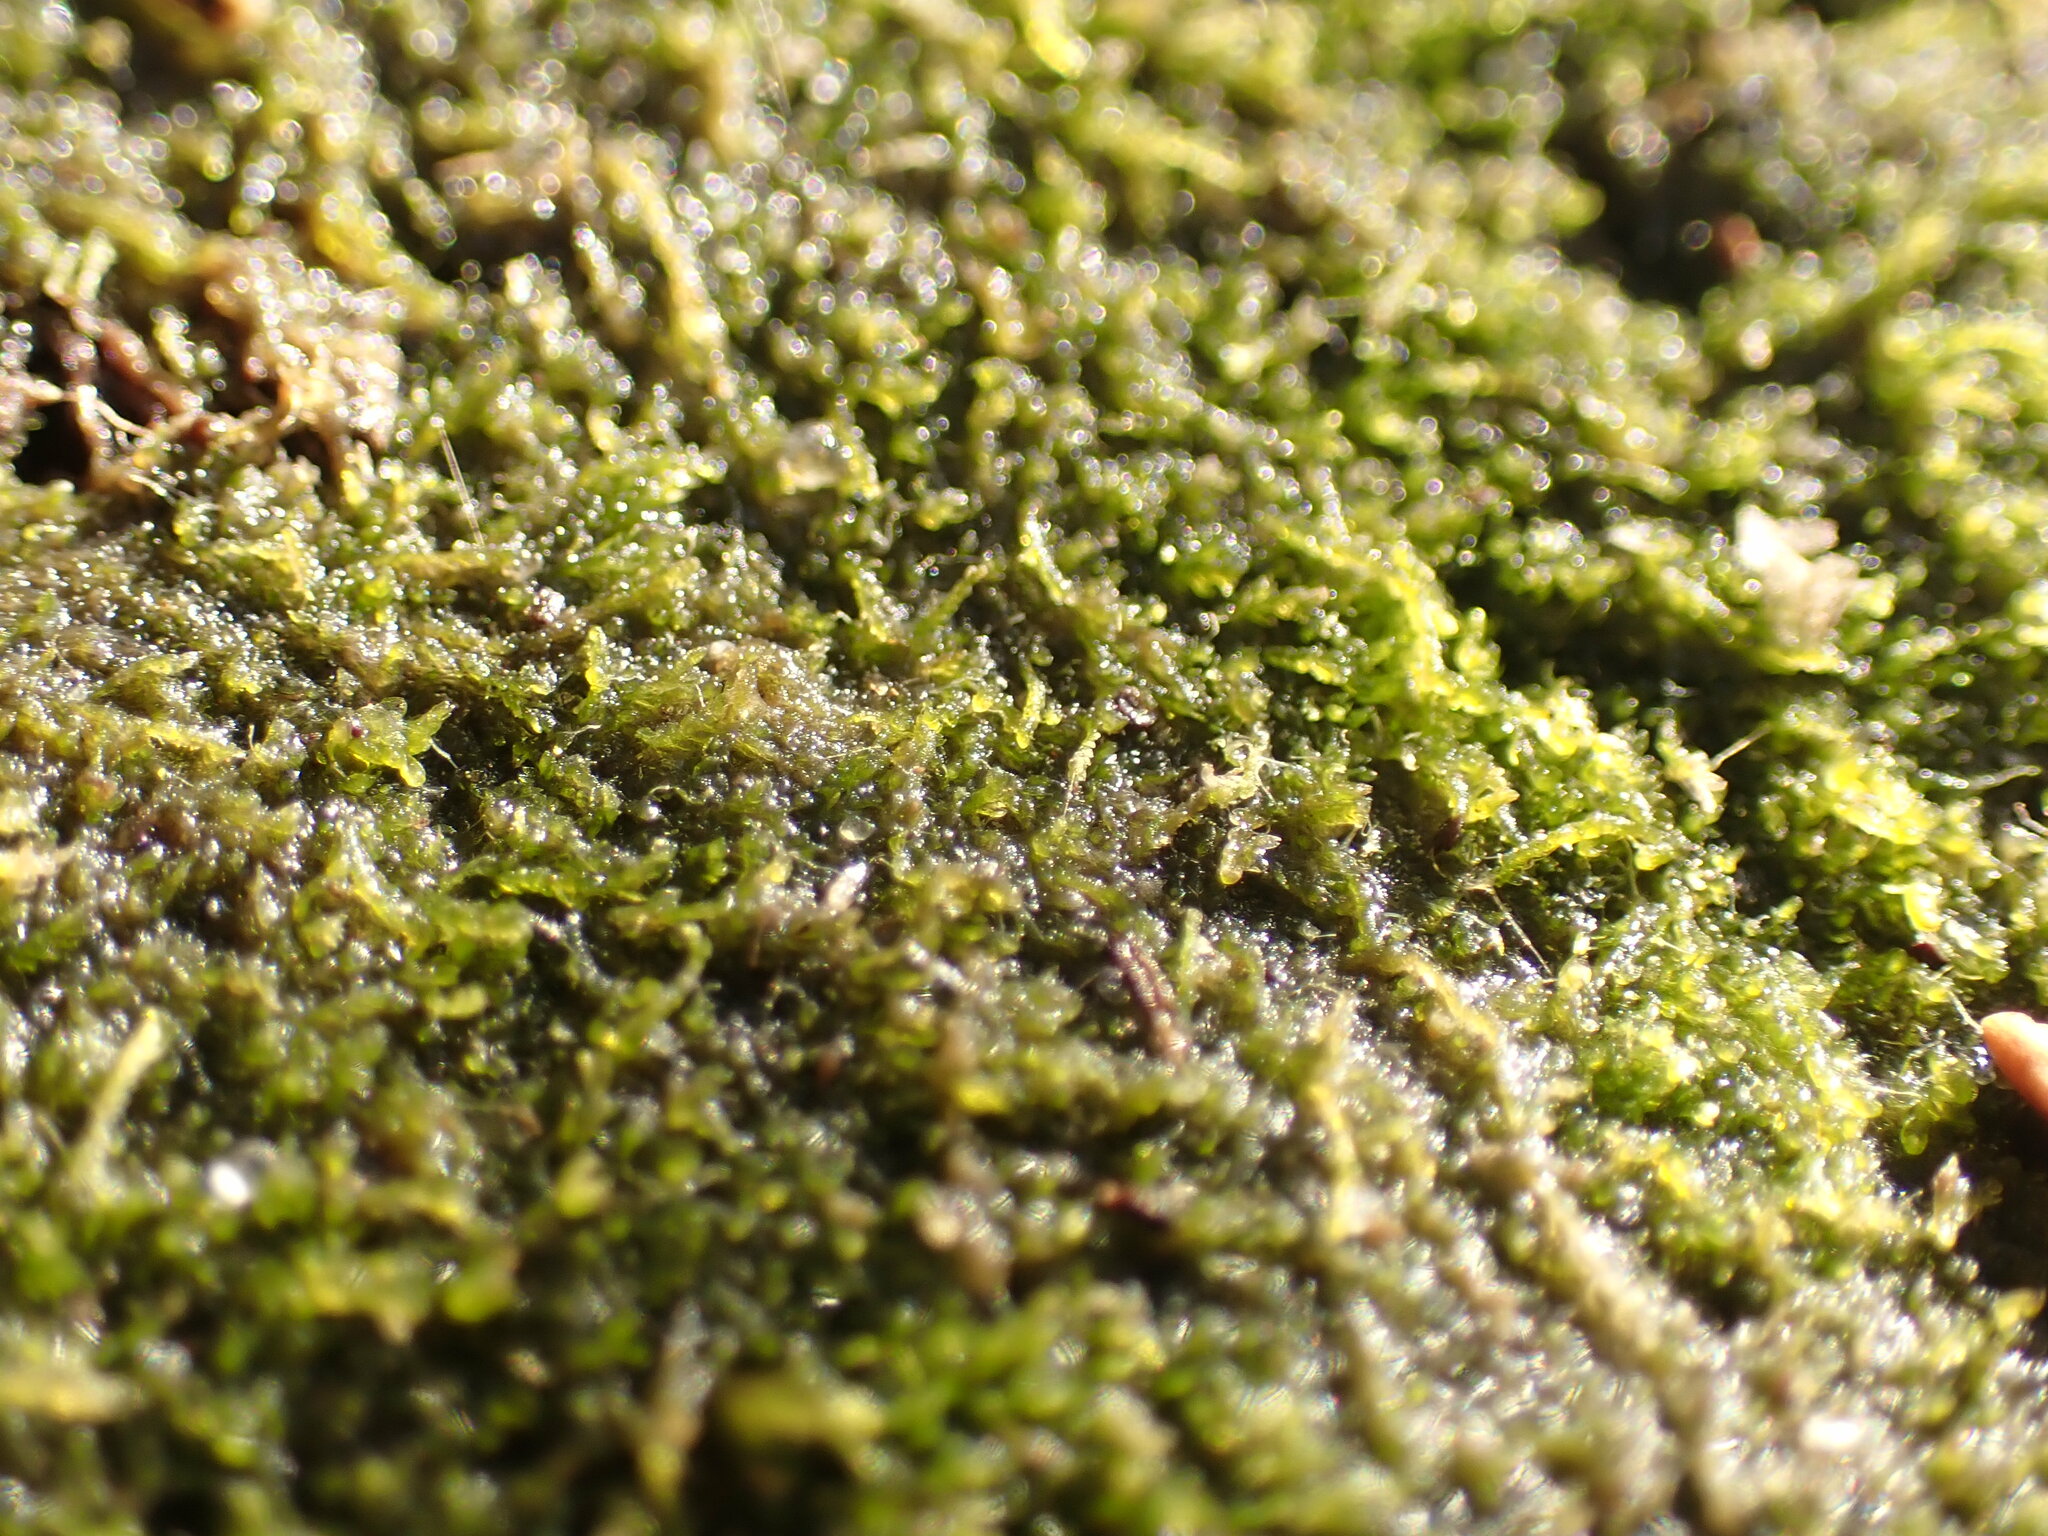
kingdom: Plantae
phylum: Marchantiophyta
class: Jungermanniopsida
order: Jungermanniales
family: Cephaloziaceae
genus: Odontoschisma
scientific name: Odontoschisma sphagni
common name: Bog-moss flapwort
